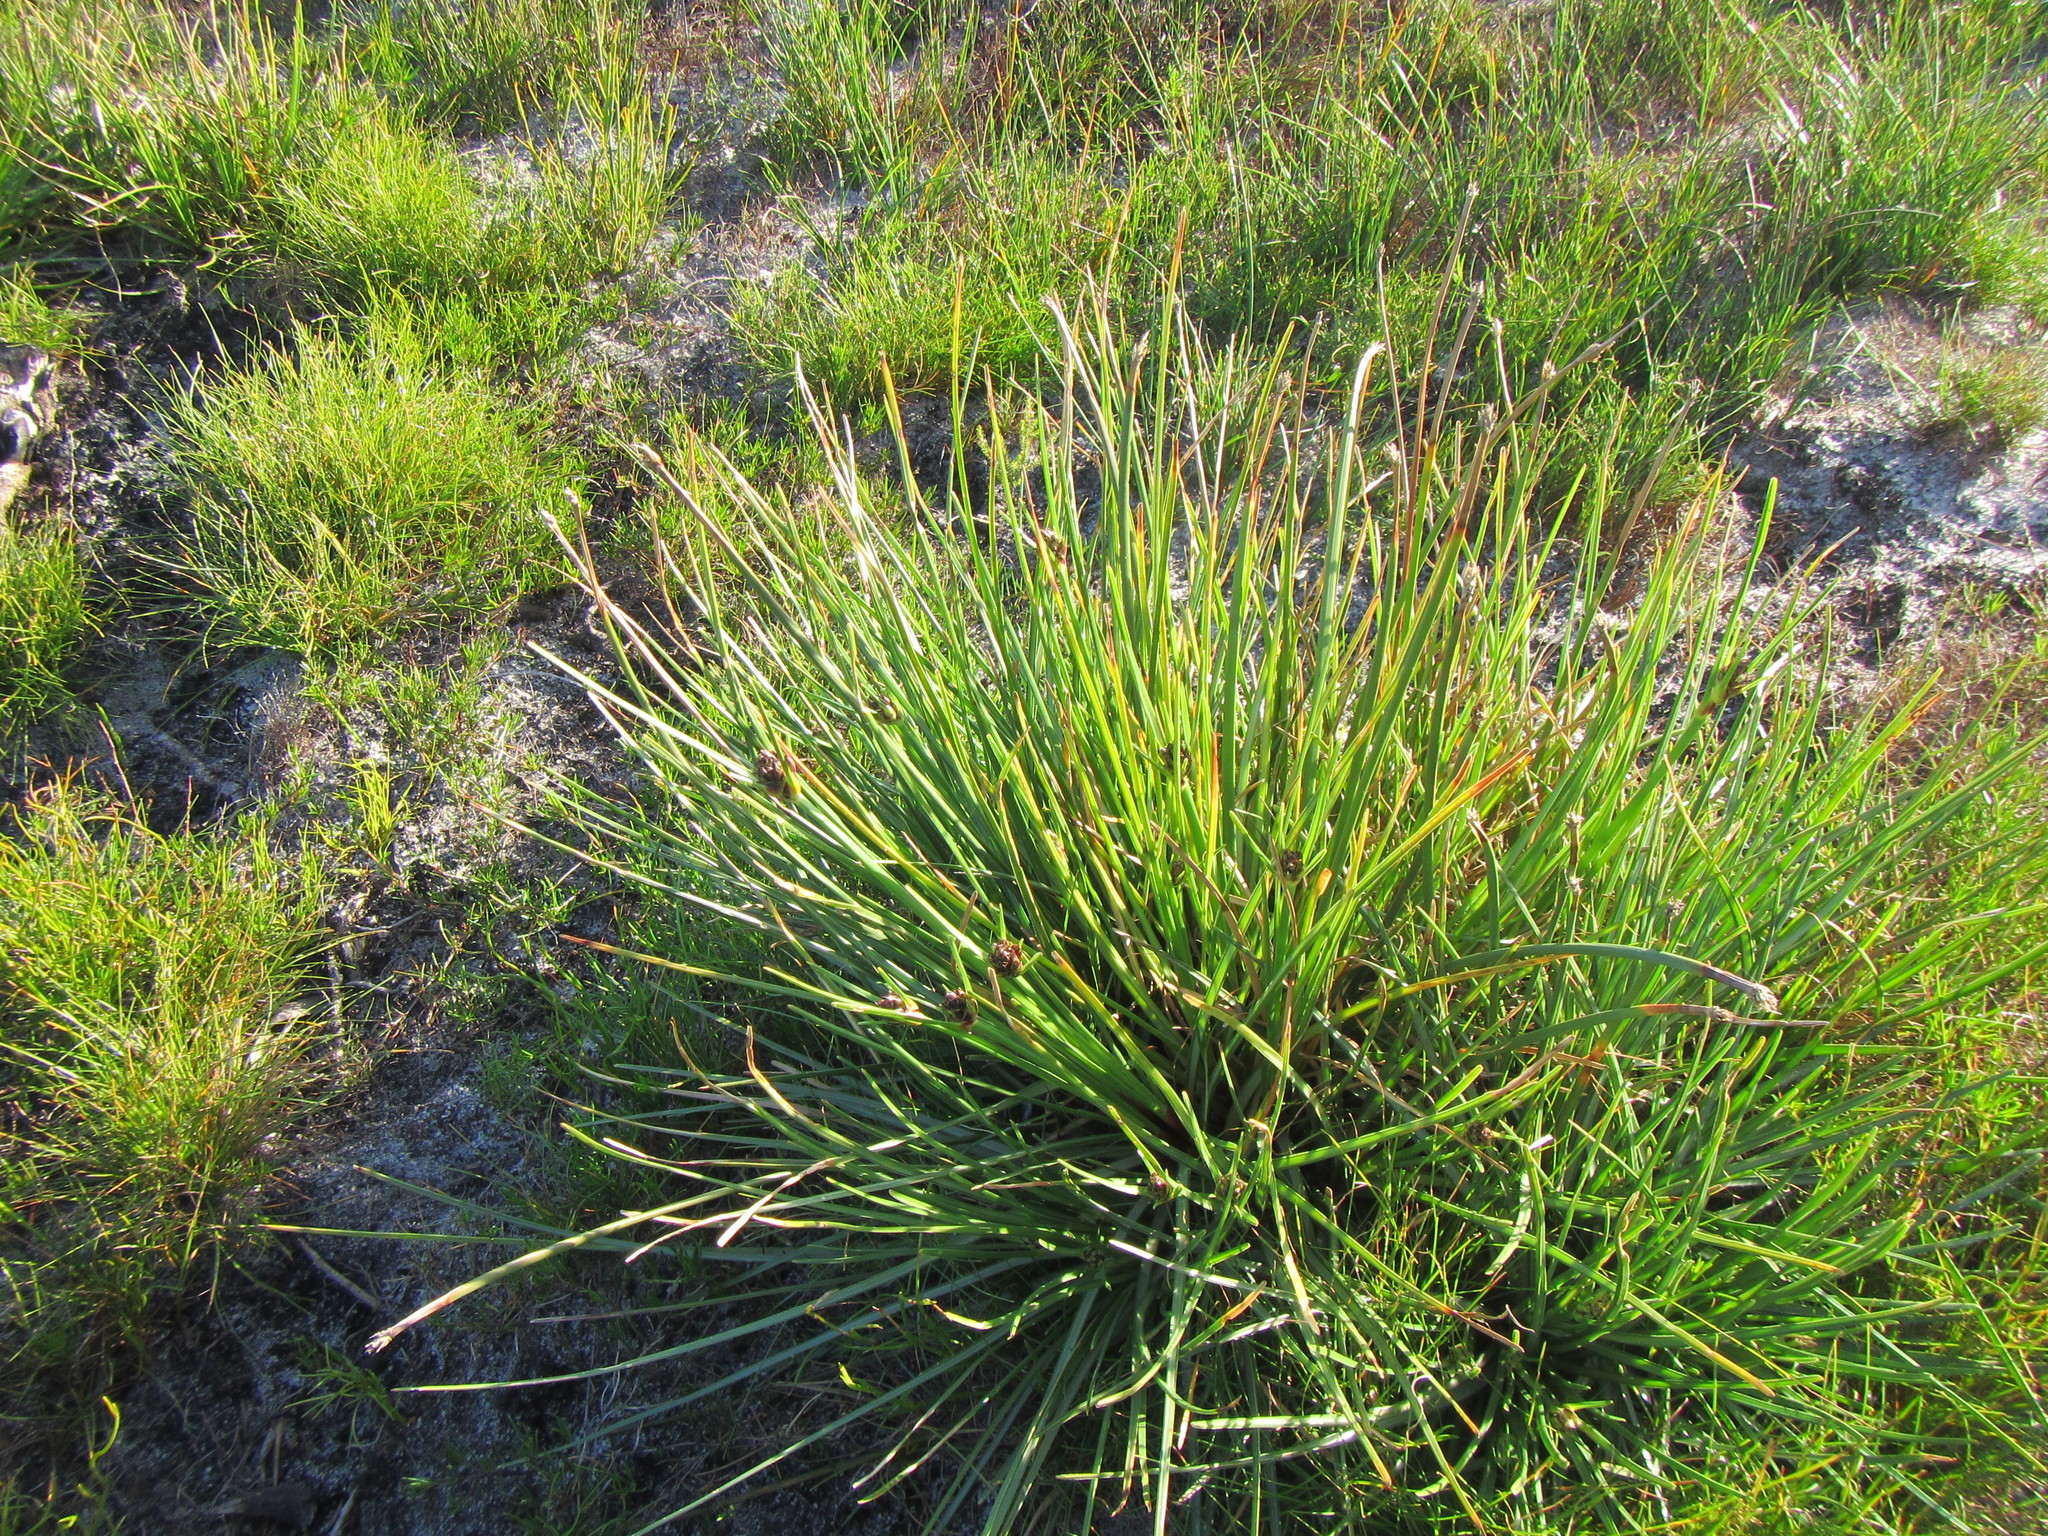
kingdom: Plantae
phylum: Tracheophyta
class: Liliopsida
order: Poales
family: Cyperaceae
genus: Ficinia
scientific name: Ficinia elatior
